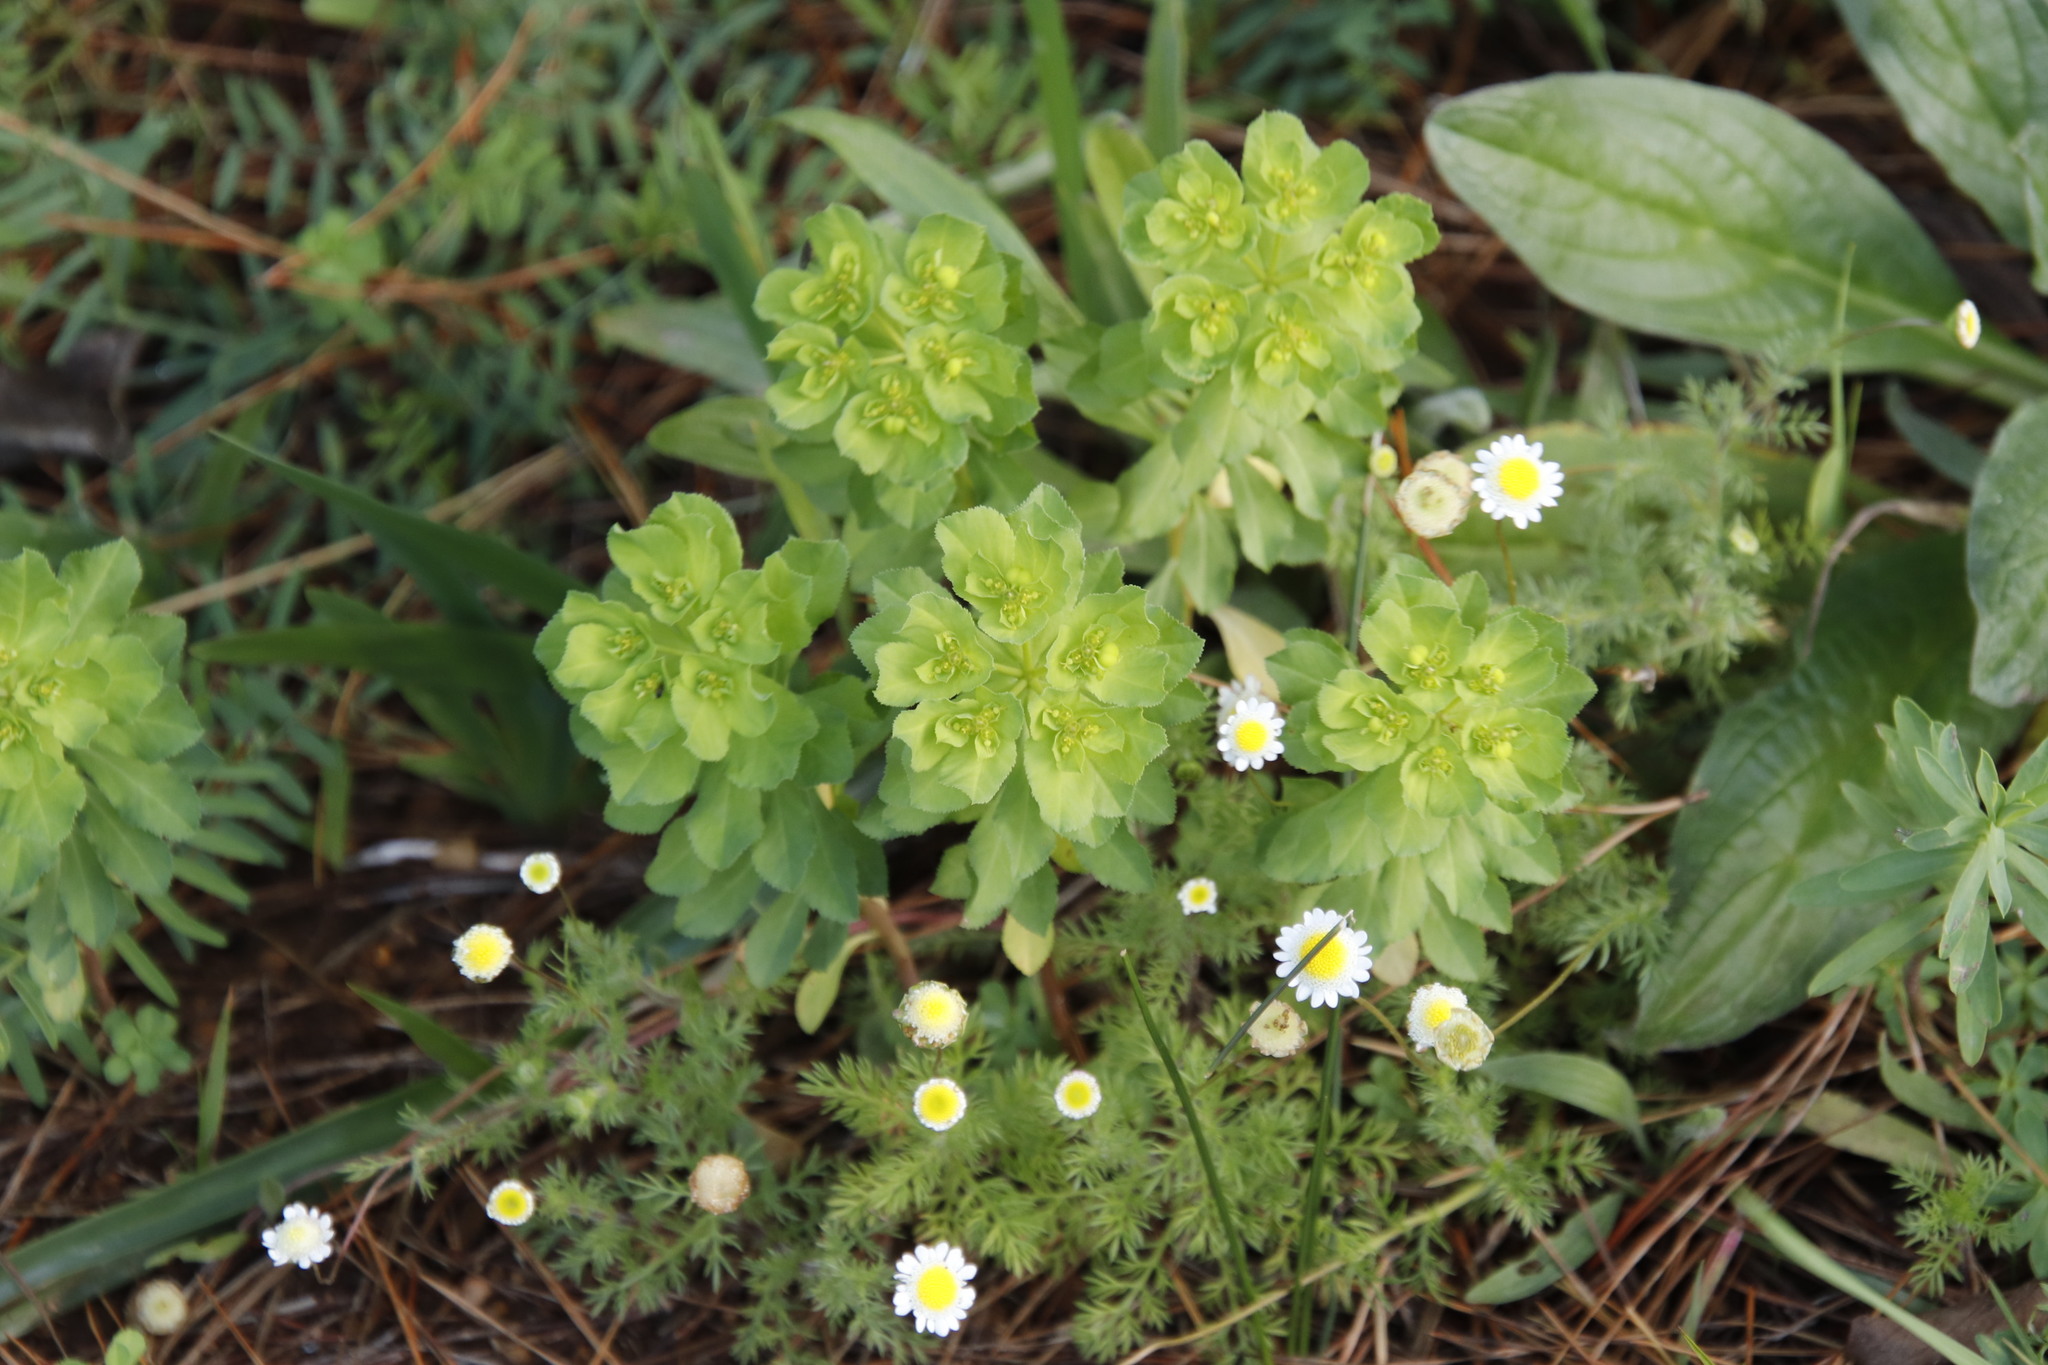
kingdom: Plantae
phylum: Tracheophyta
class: Magnoliopsida
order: Asterales
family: Asteraceae
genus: Cotula
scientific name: Cotula turbinata
